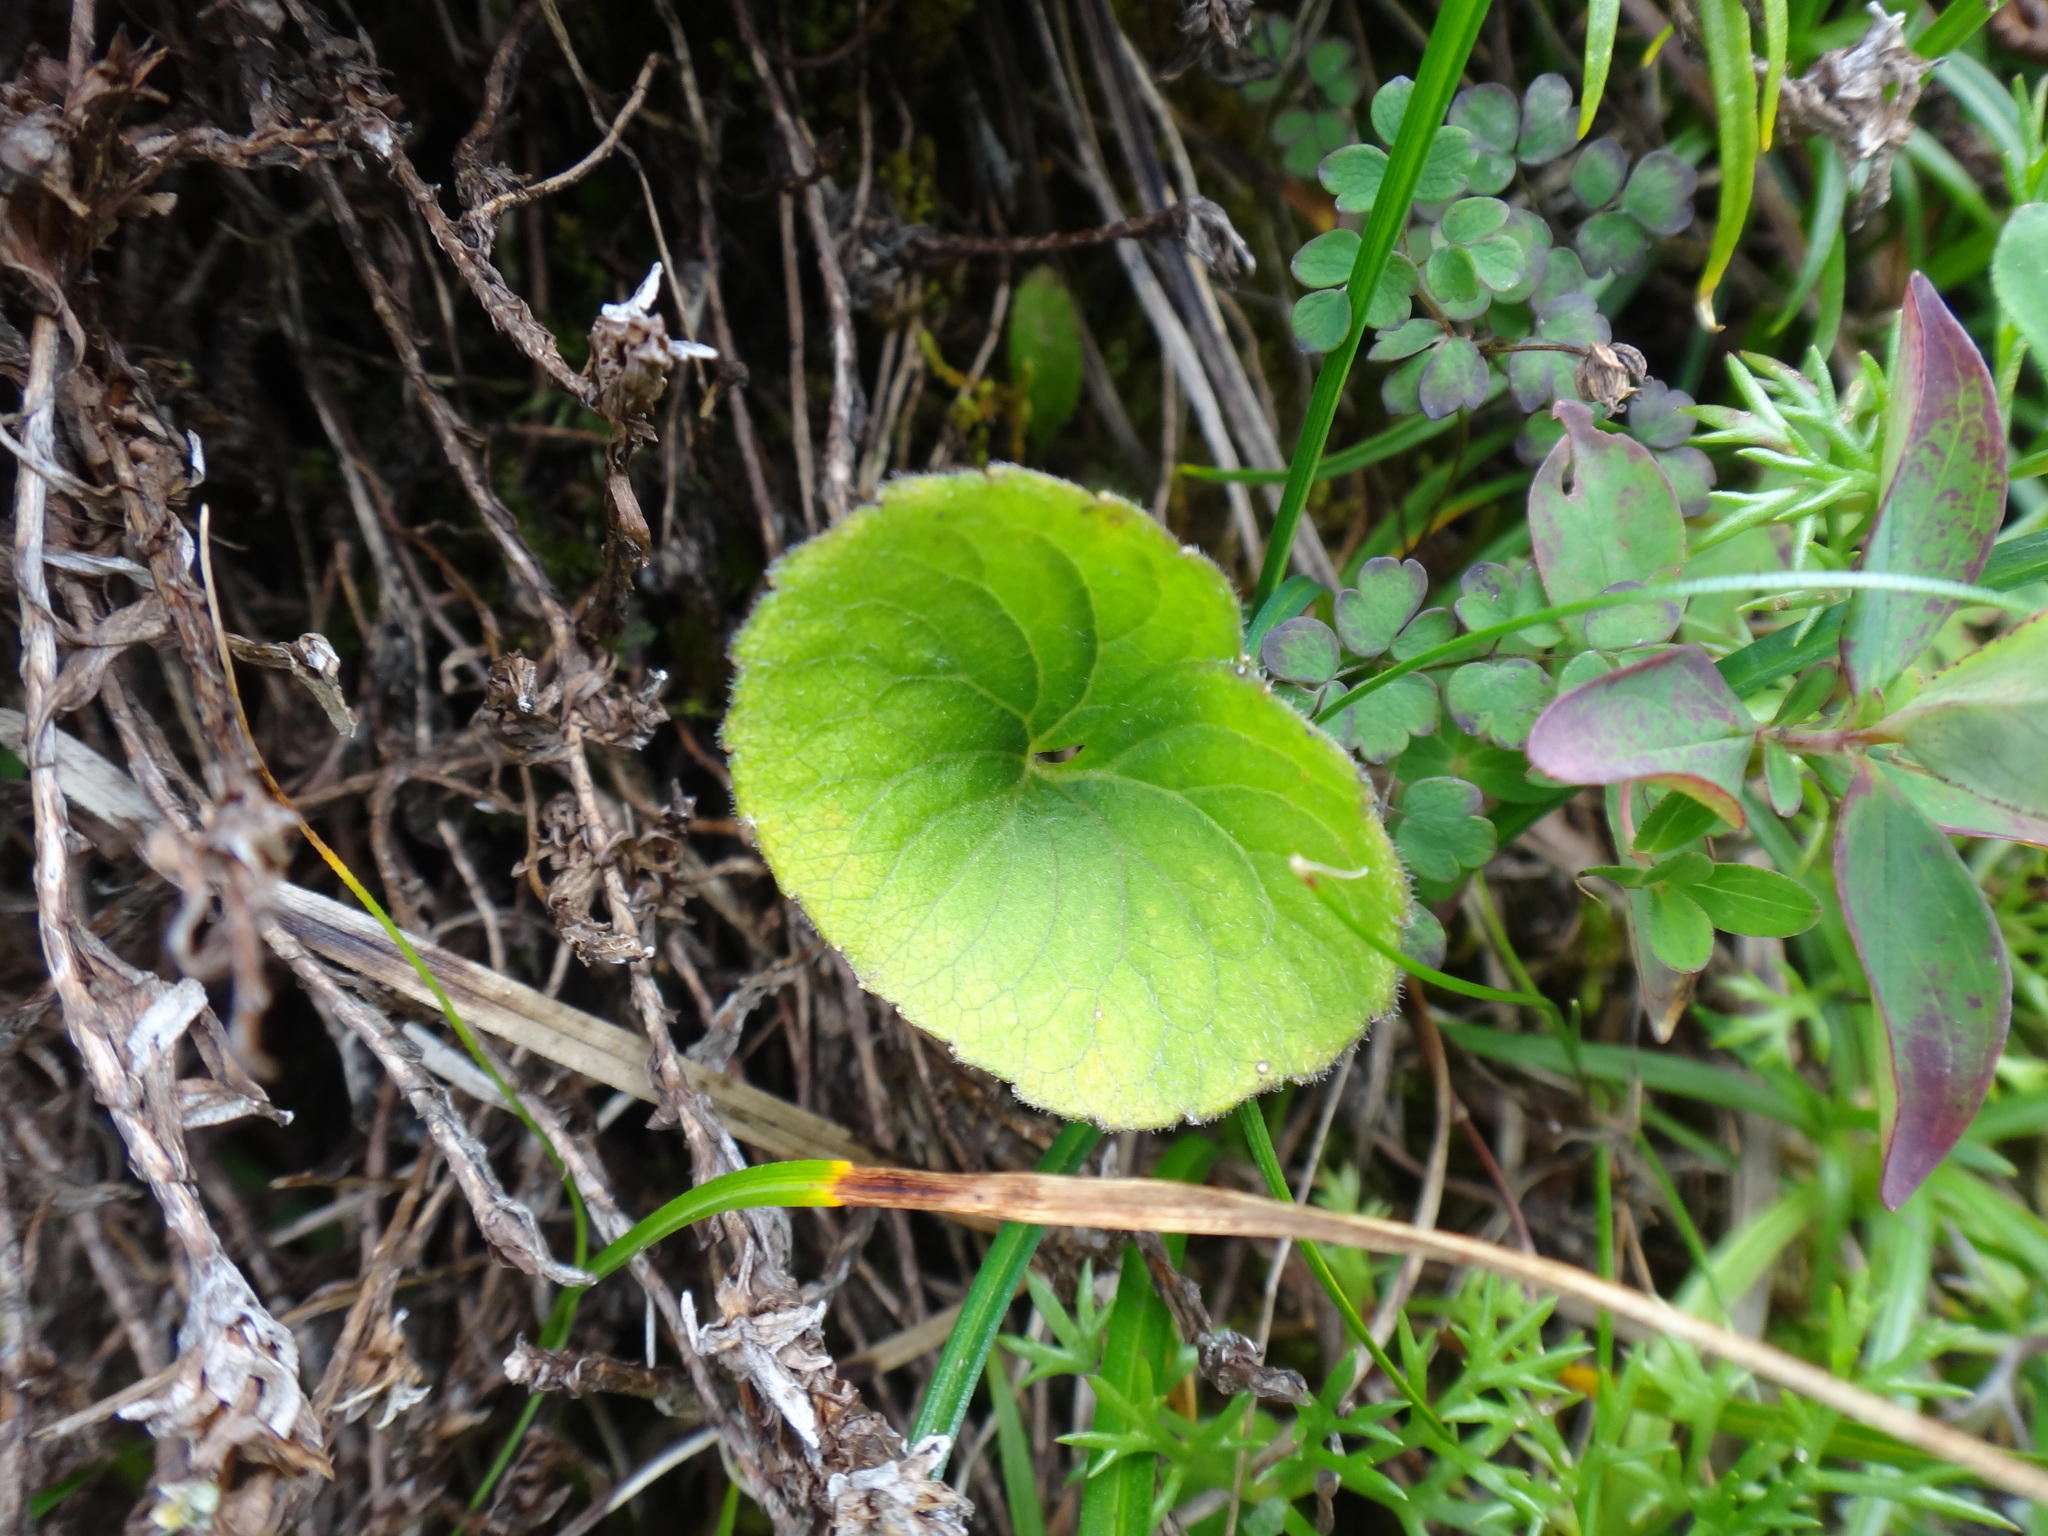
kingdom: Plantae
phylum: Tracheophyta
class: Magnoliopsida
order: Malpighiales
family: Violaceae
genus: Viola
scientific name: Viola biflora
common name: Alpine yellow violet
